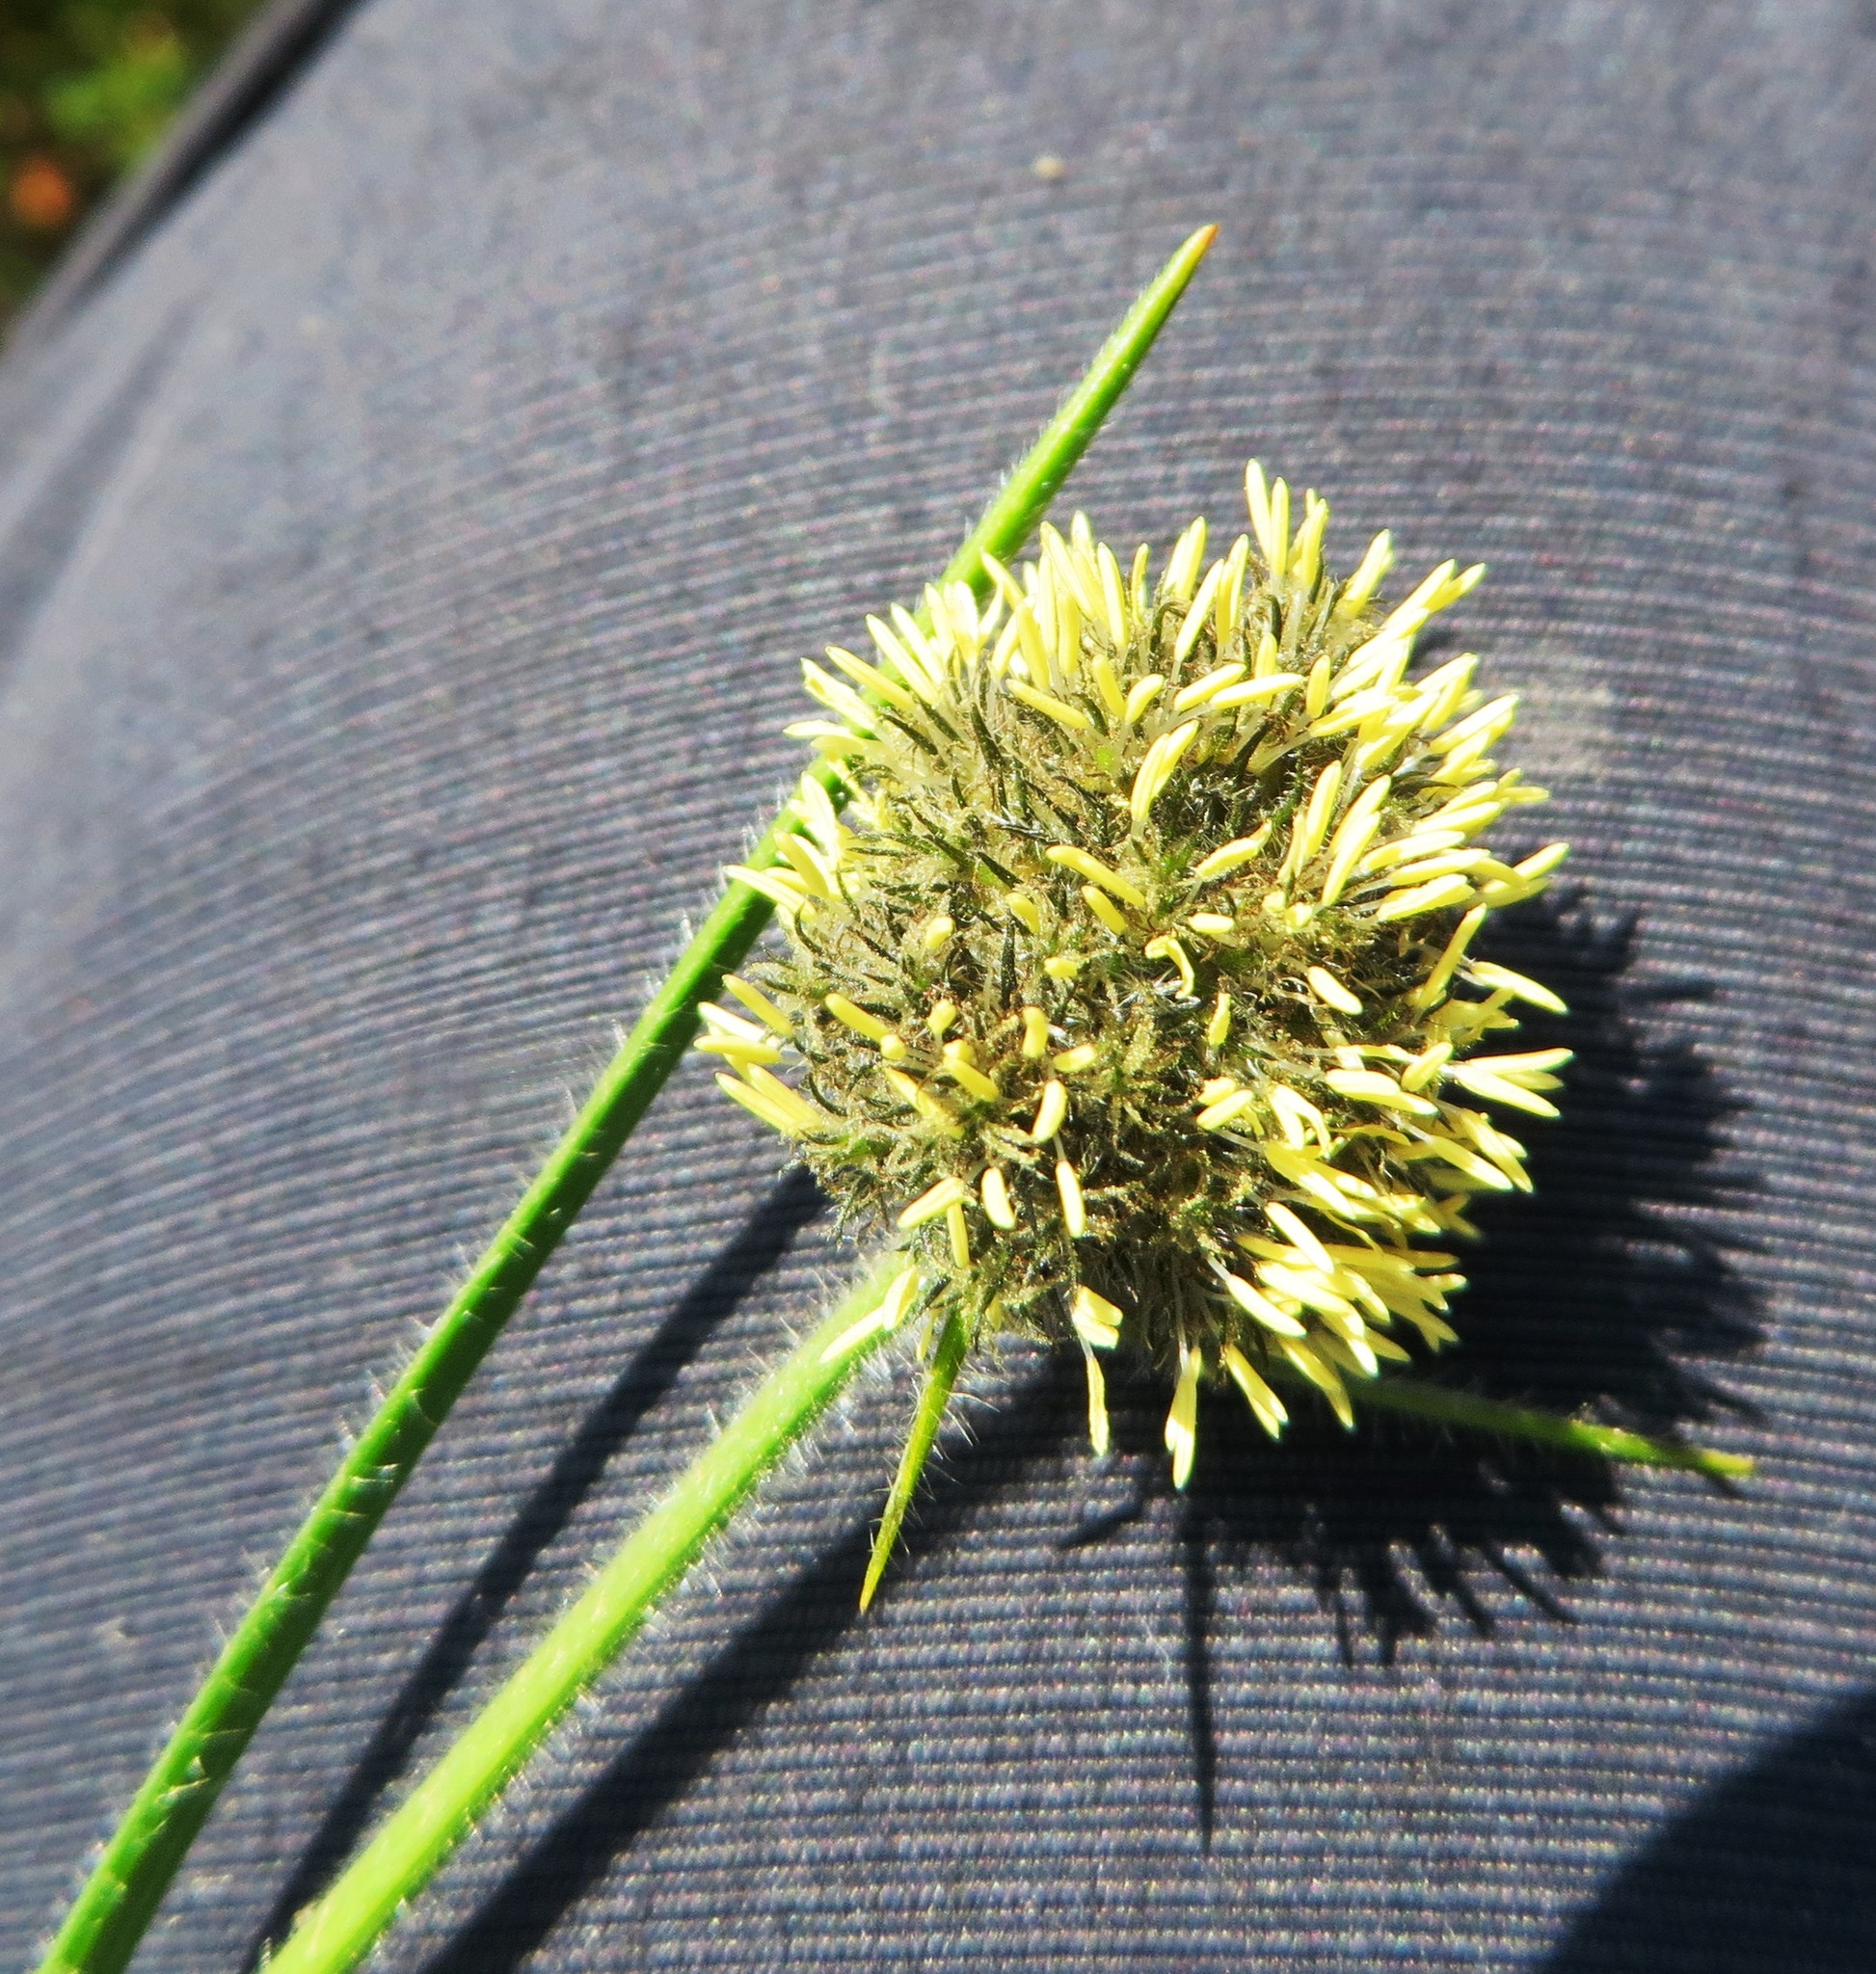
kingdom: Plantae
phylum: Tracheophyta
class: Liliopsida
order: Poales
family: Cyperaceae
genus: Fuirena
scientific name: Fuirena hirsuta
